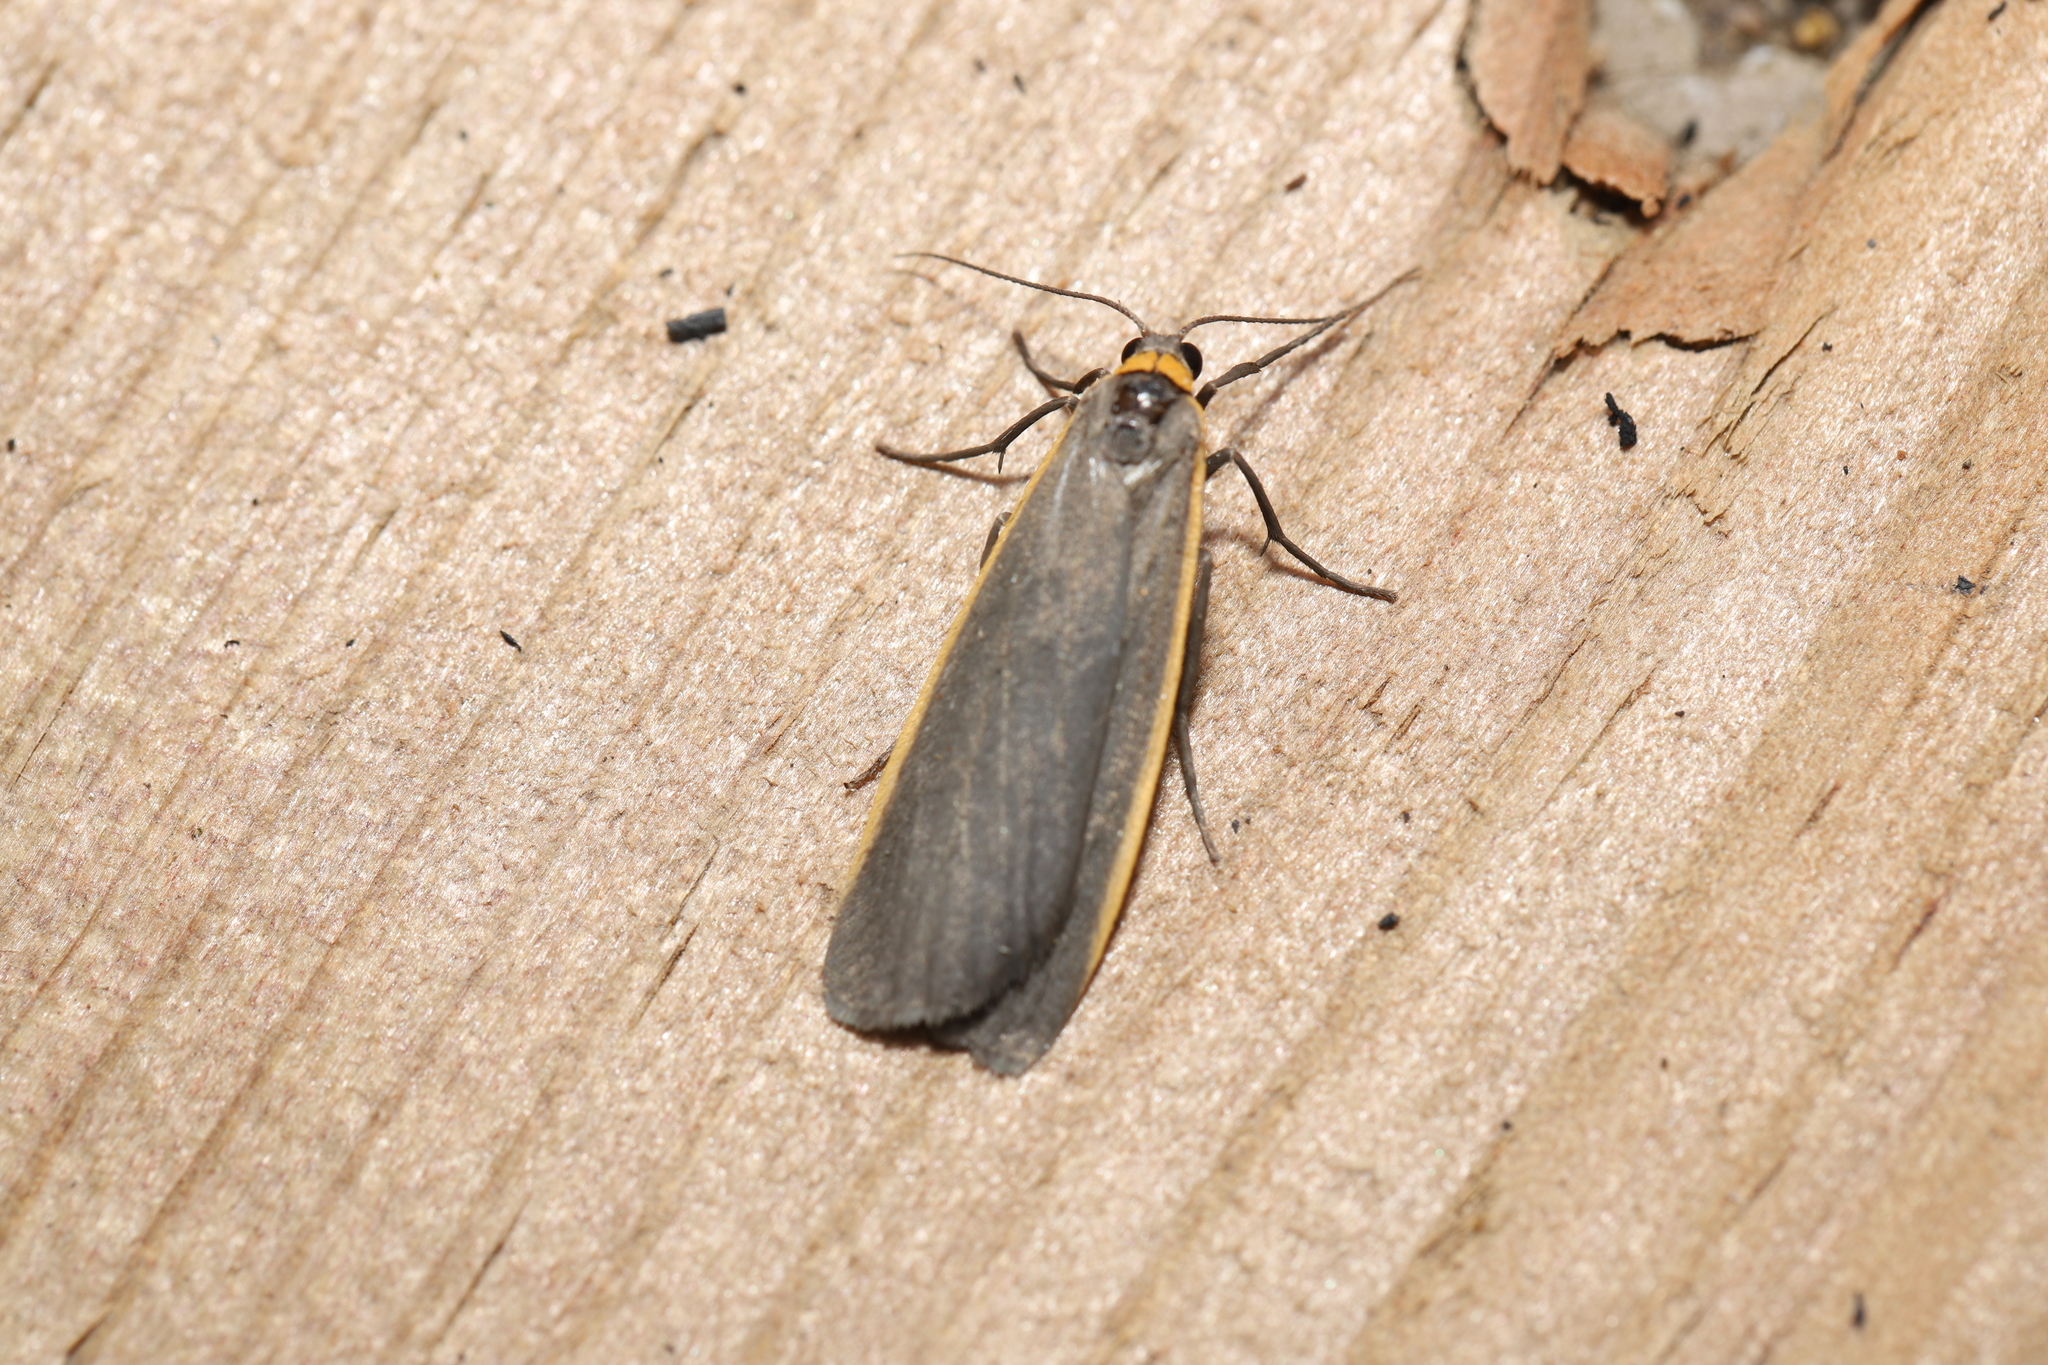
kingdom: Animalia
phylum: Arthropoda
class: Insecta
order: Lepidoptera
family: Erebidae
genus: Manulea
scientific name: Manulea bicolor
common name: Bicolored moth
